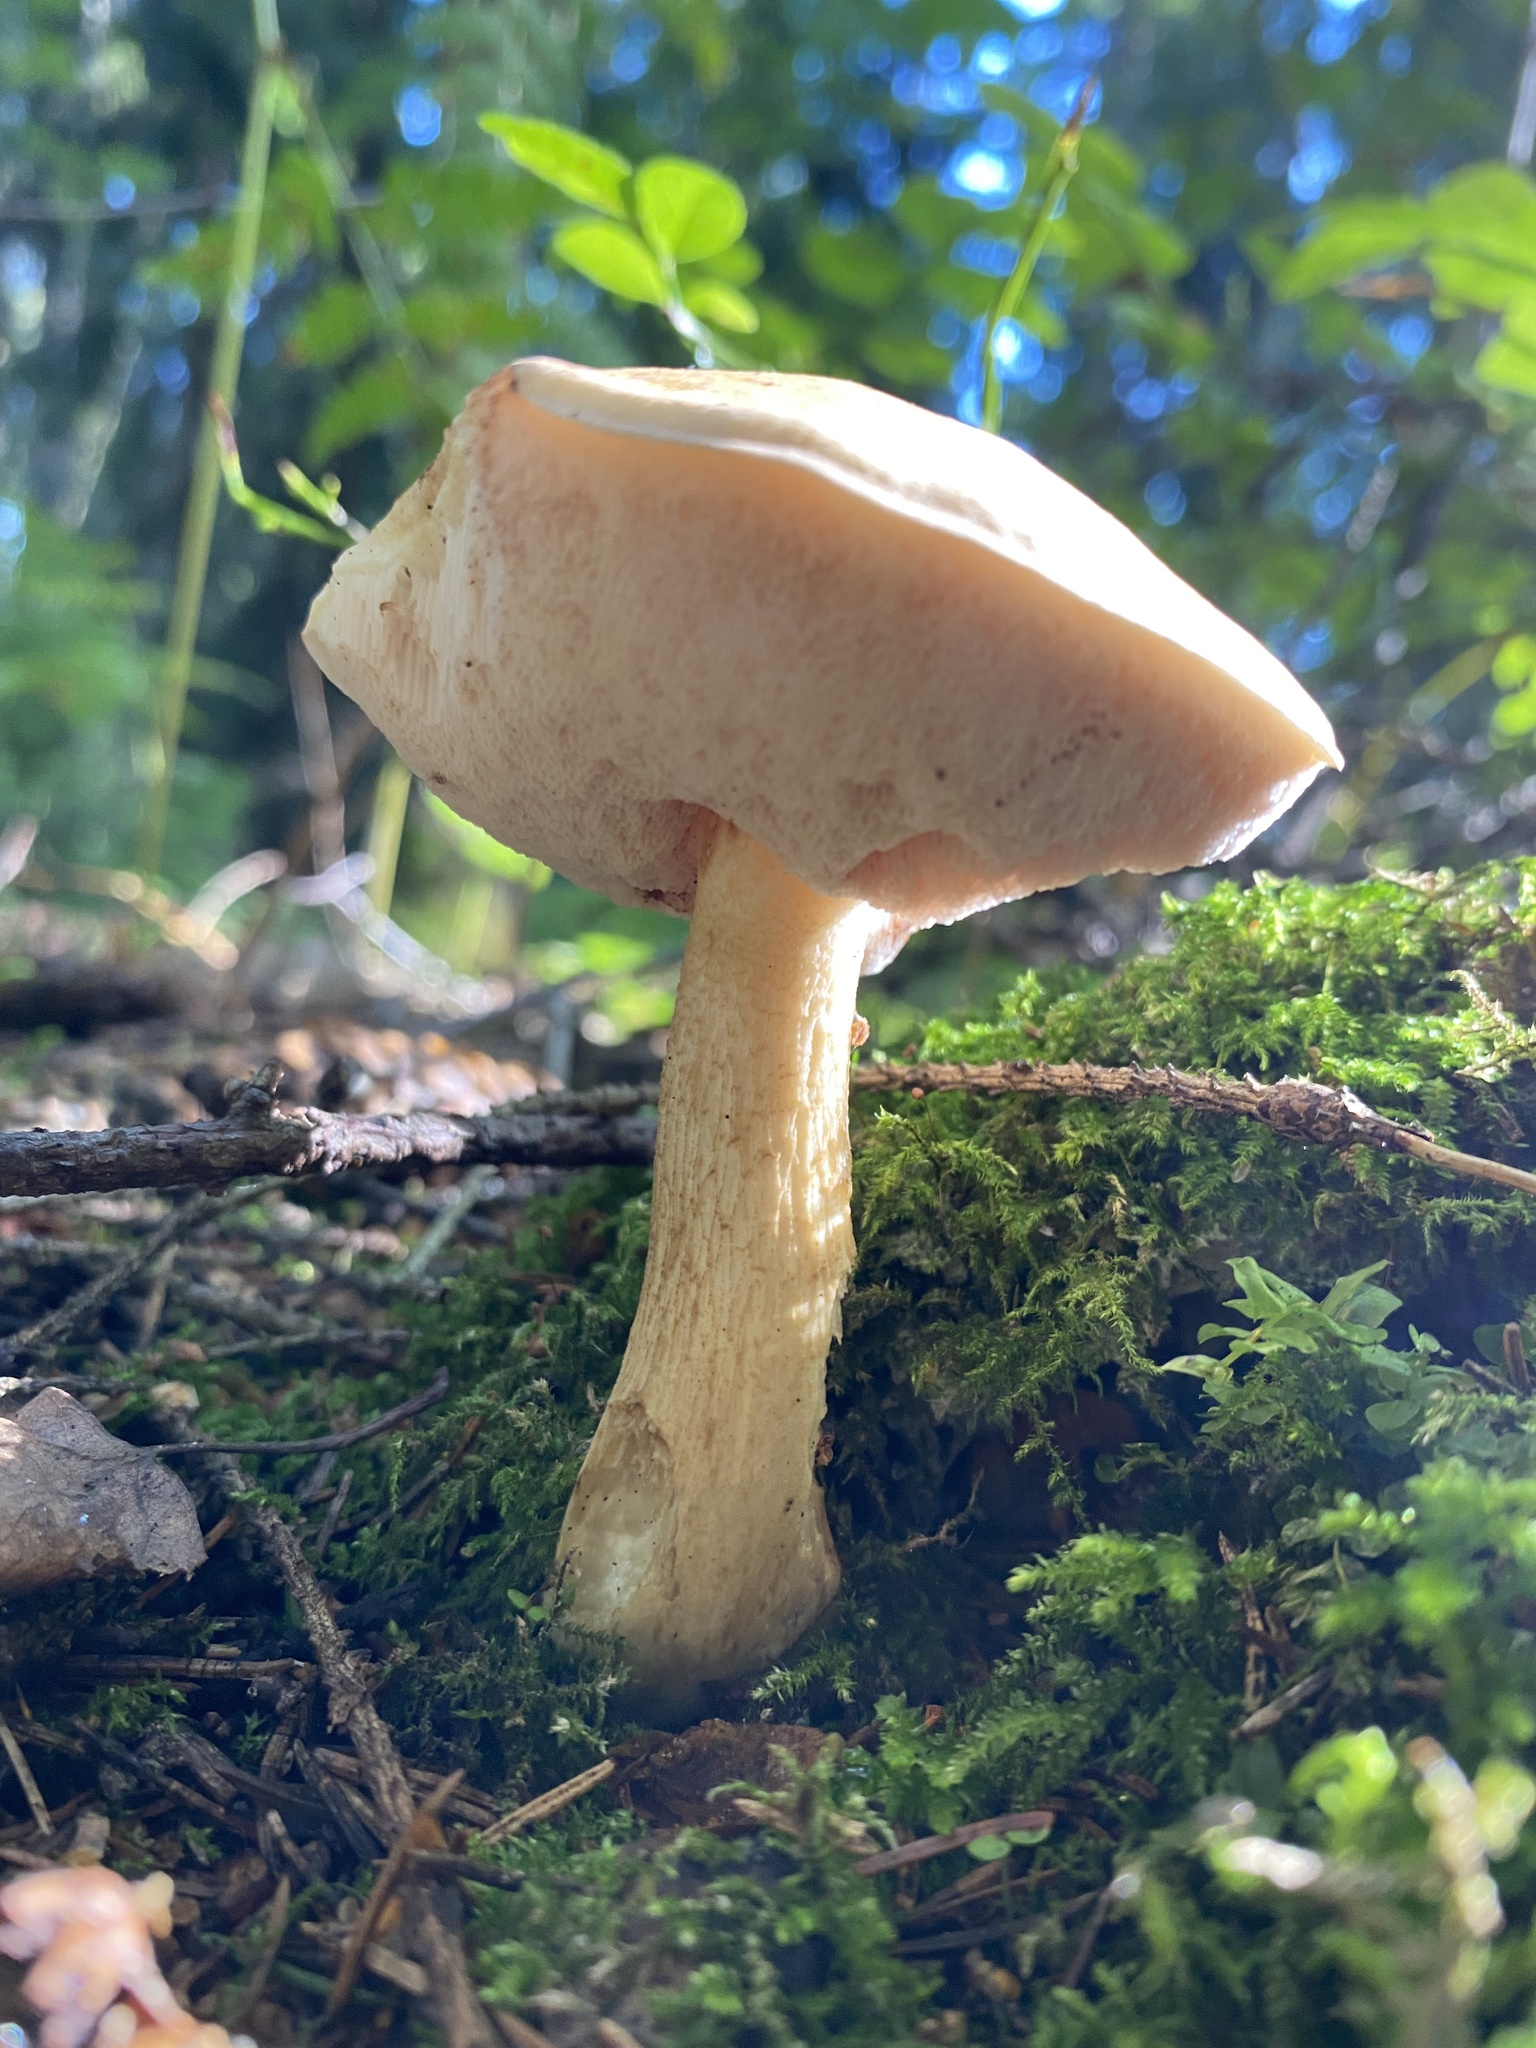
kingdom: Fungi
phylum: Basidiomycota
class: Agaricomycetes
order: Boletales
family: Boletaceae
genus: Tylopilus
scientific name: Tylopilus felleus
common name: Bitter bolete
